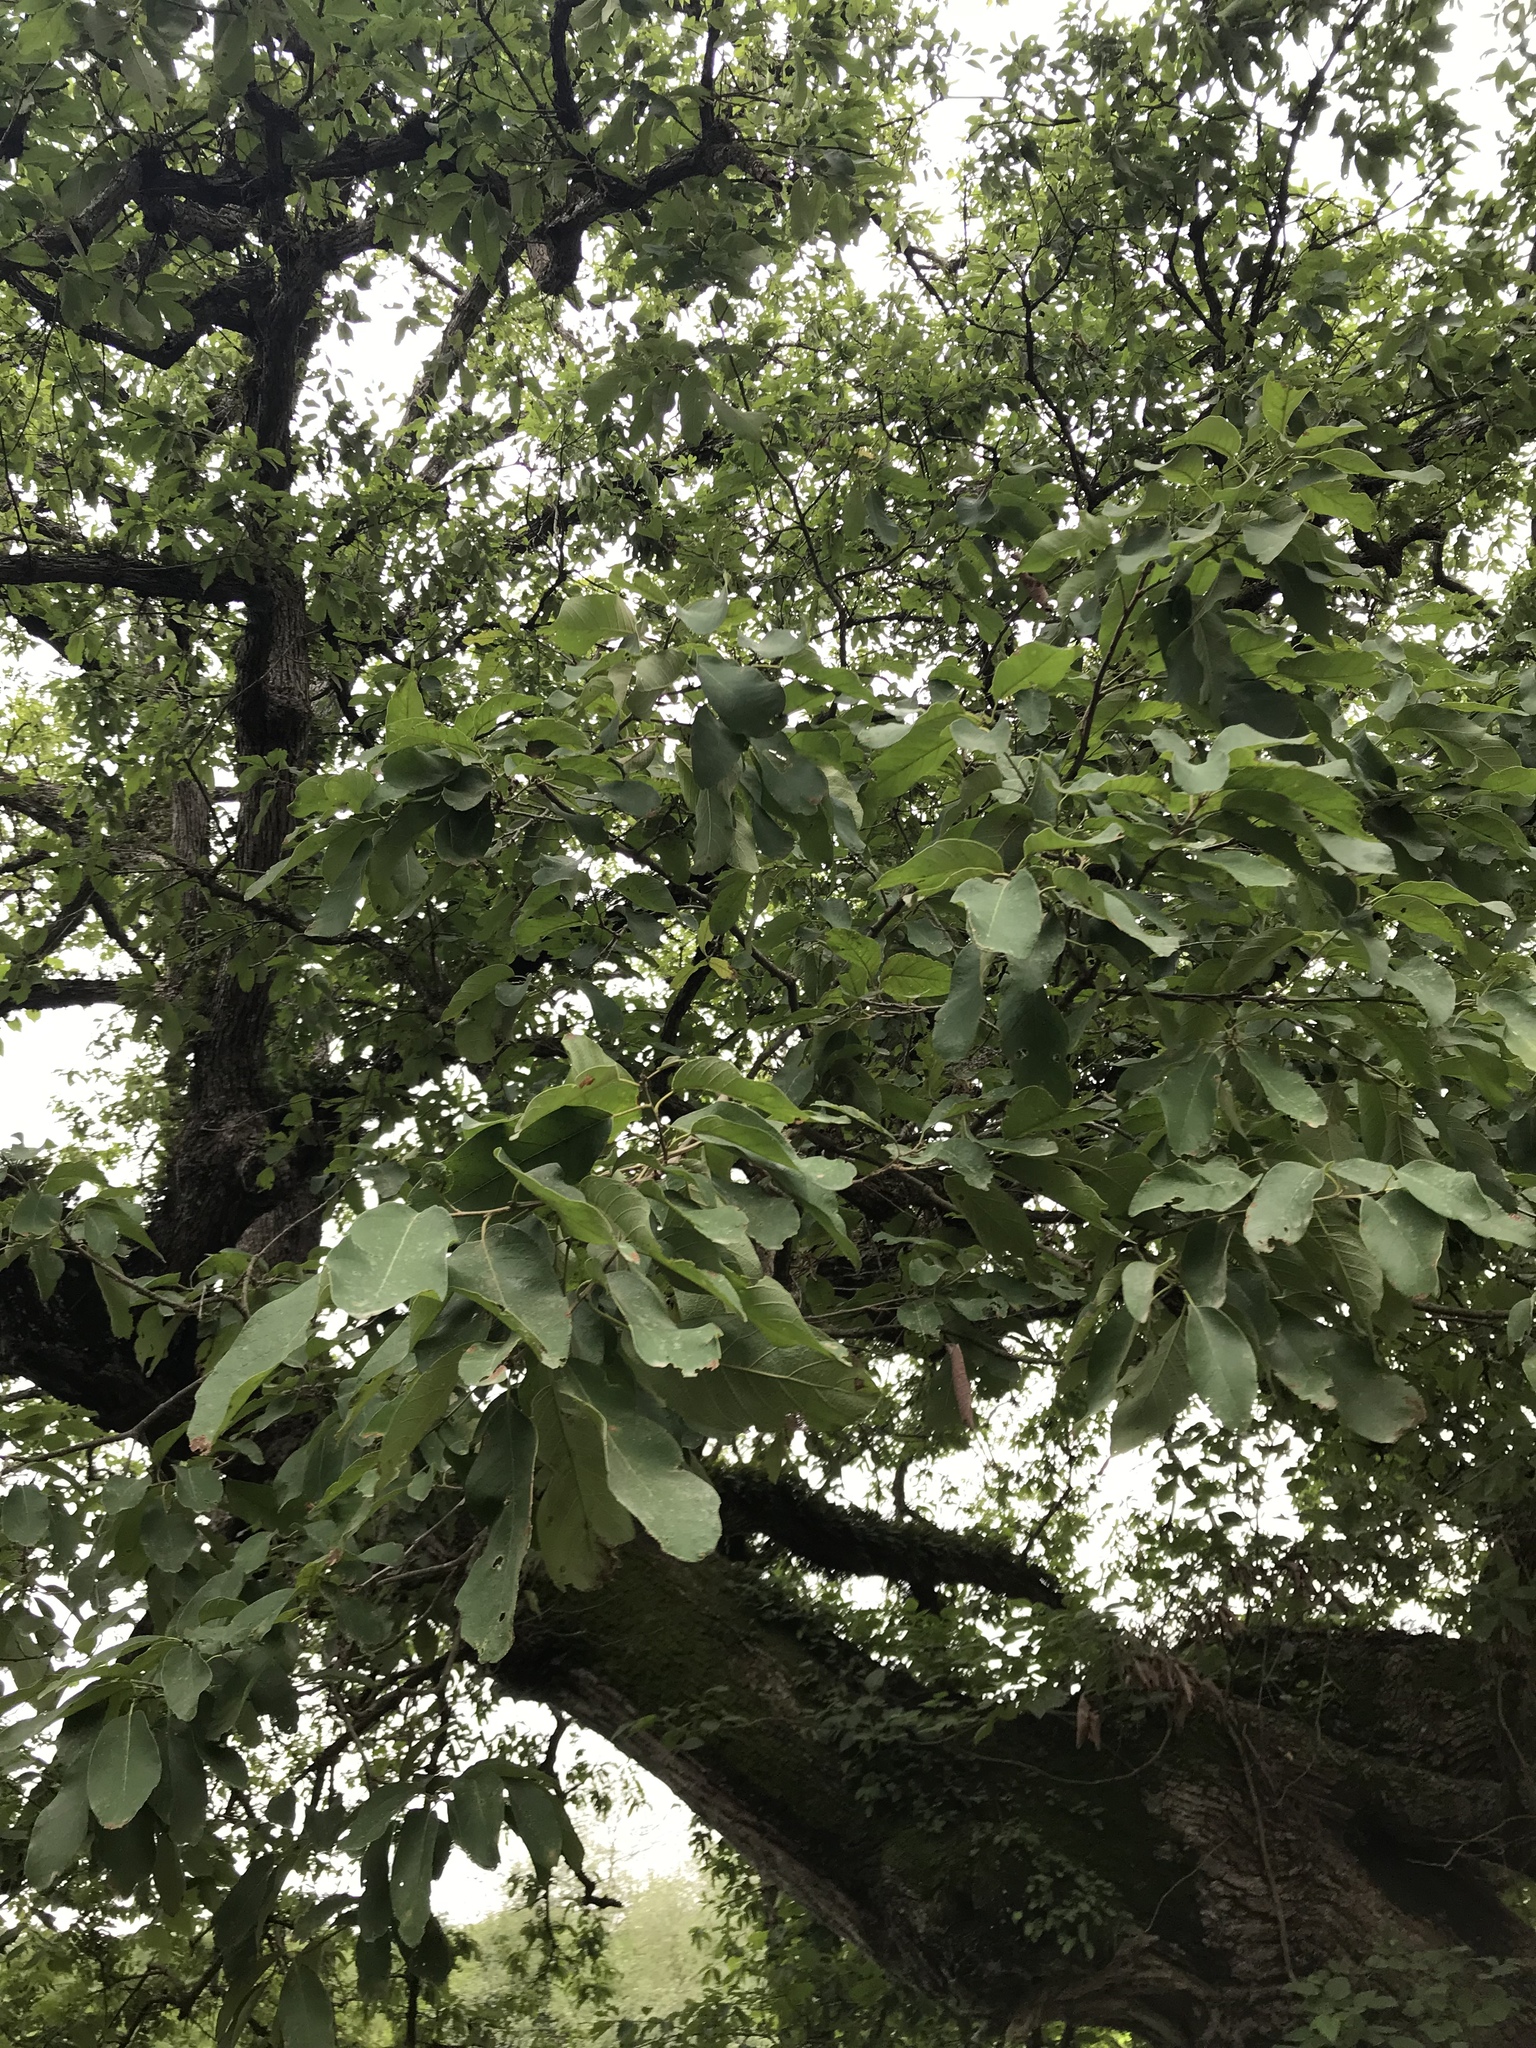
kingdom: Plantae
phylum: Tracheophyta
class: Magnoliopsida
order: Fagales
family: Fagaceae
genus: Quercus
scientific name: Quercus polymorpha
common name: Mexican white oak
